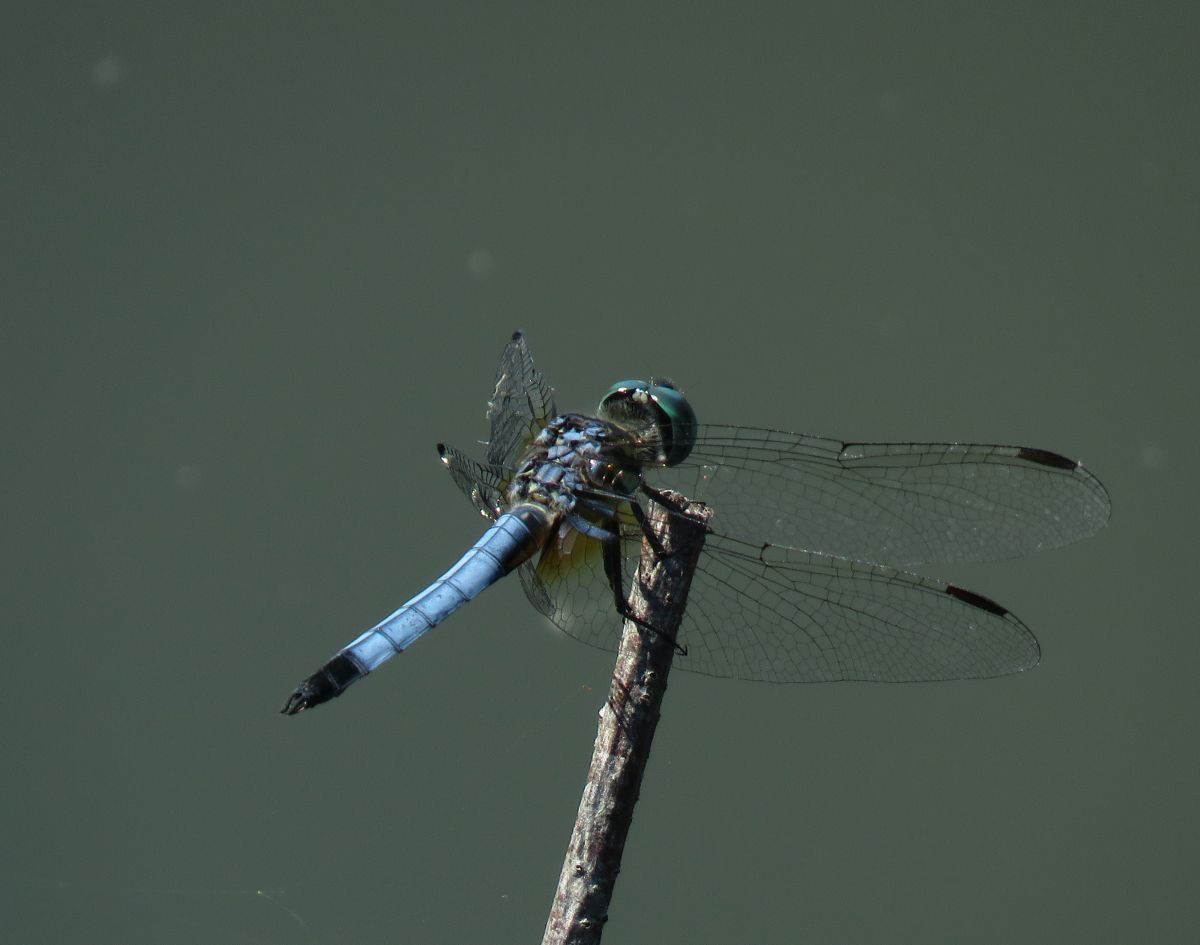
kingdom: Animalia
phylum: Arthropoda
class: Insecta
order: Odonata
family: Libellulidae
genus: Pachydiplax
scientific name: Pachydiplax longipennis
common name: Blue dasher
